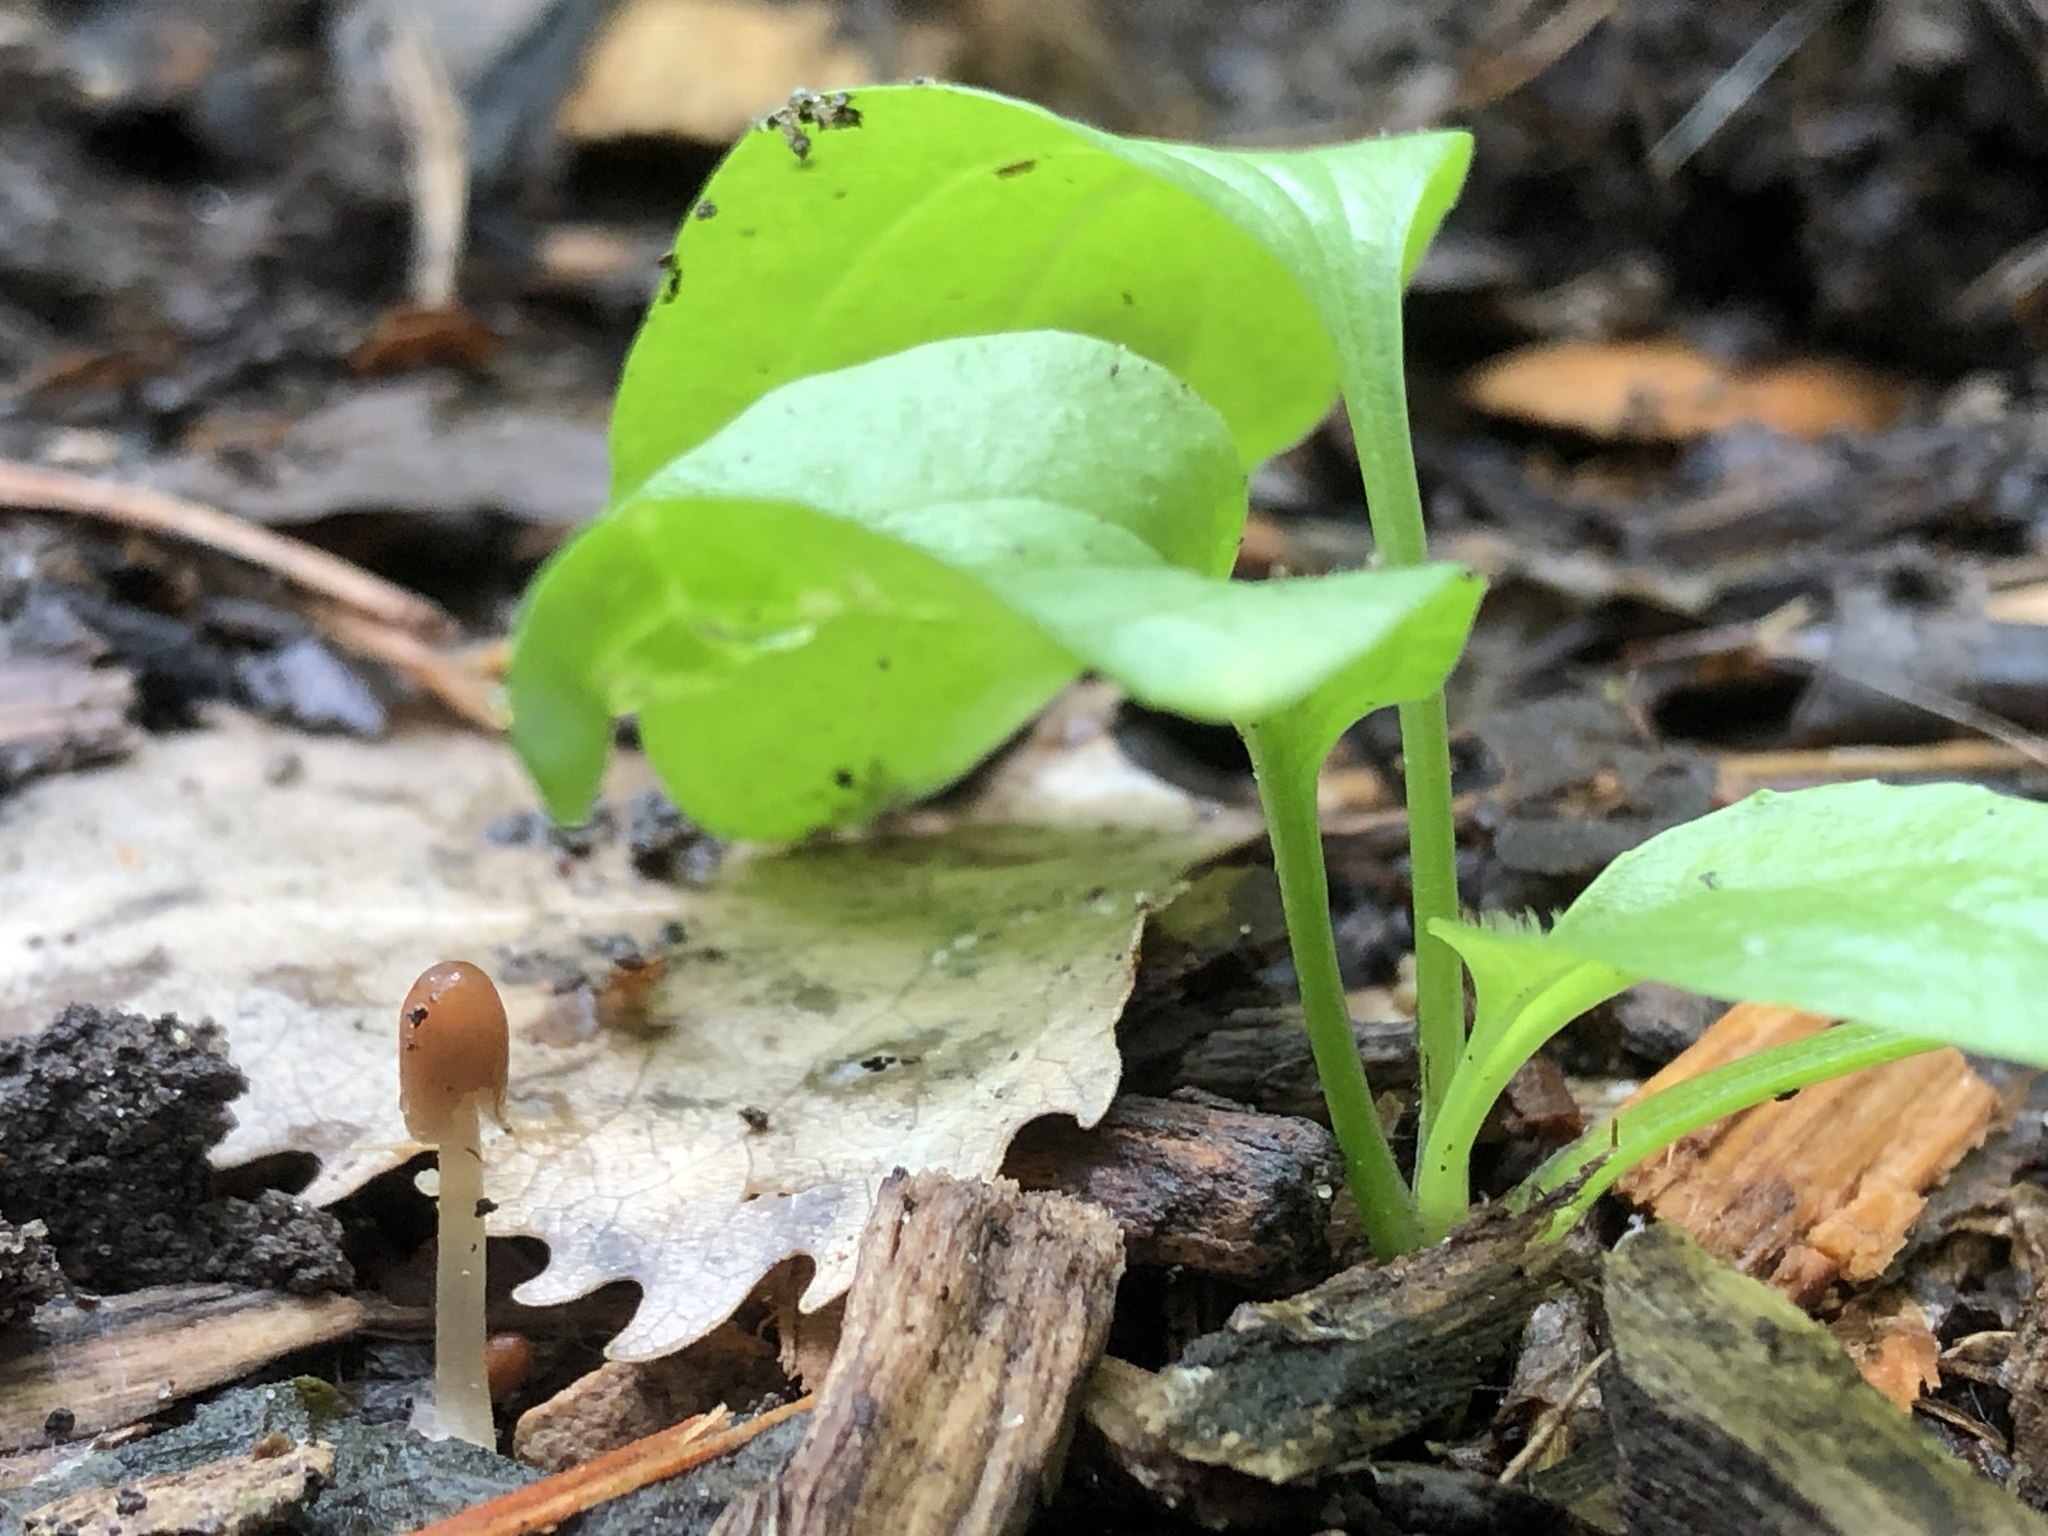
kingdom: Fungi
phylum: Basidiomycota
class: Agaricomycetes
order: Agaricales
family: Psathyrellaceae
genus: Parasola
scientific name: Parasola auricoma
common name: Goldenhaired inkcap
